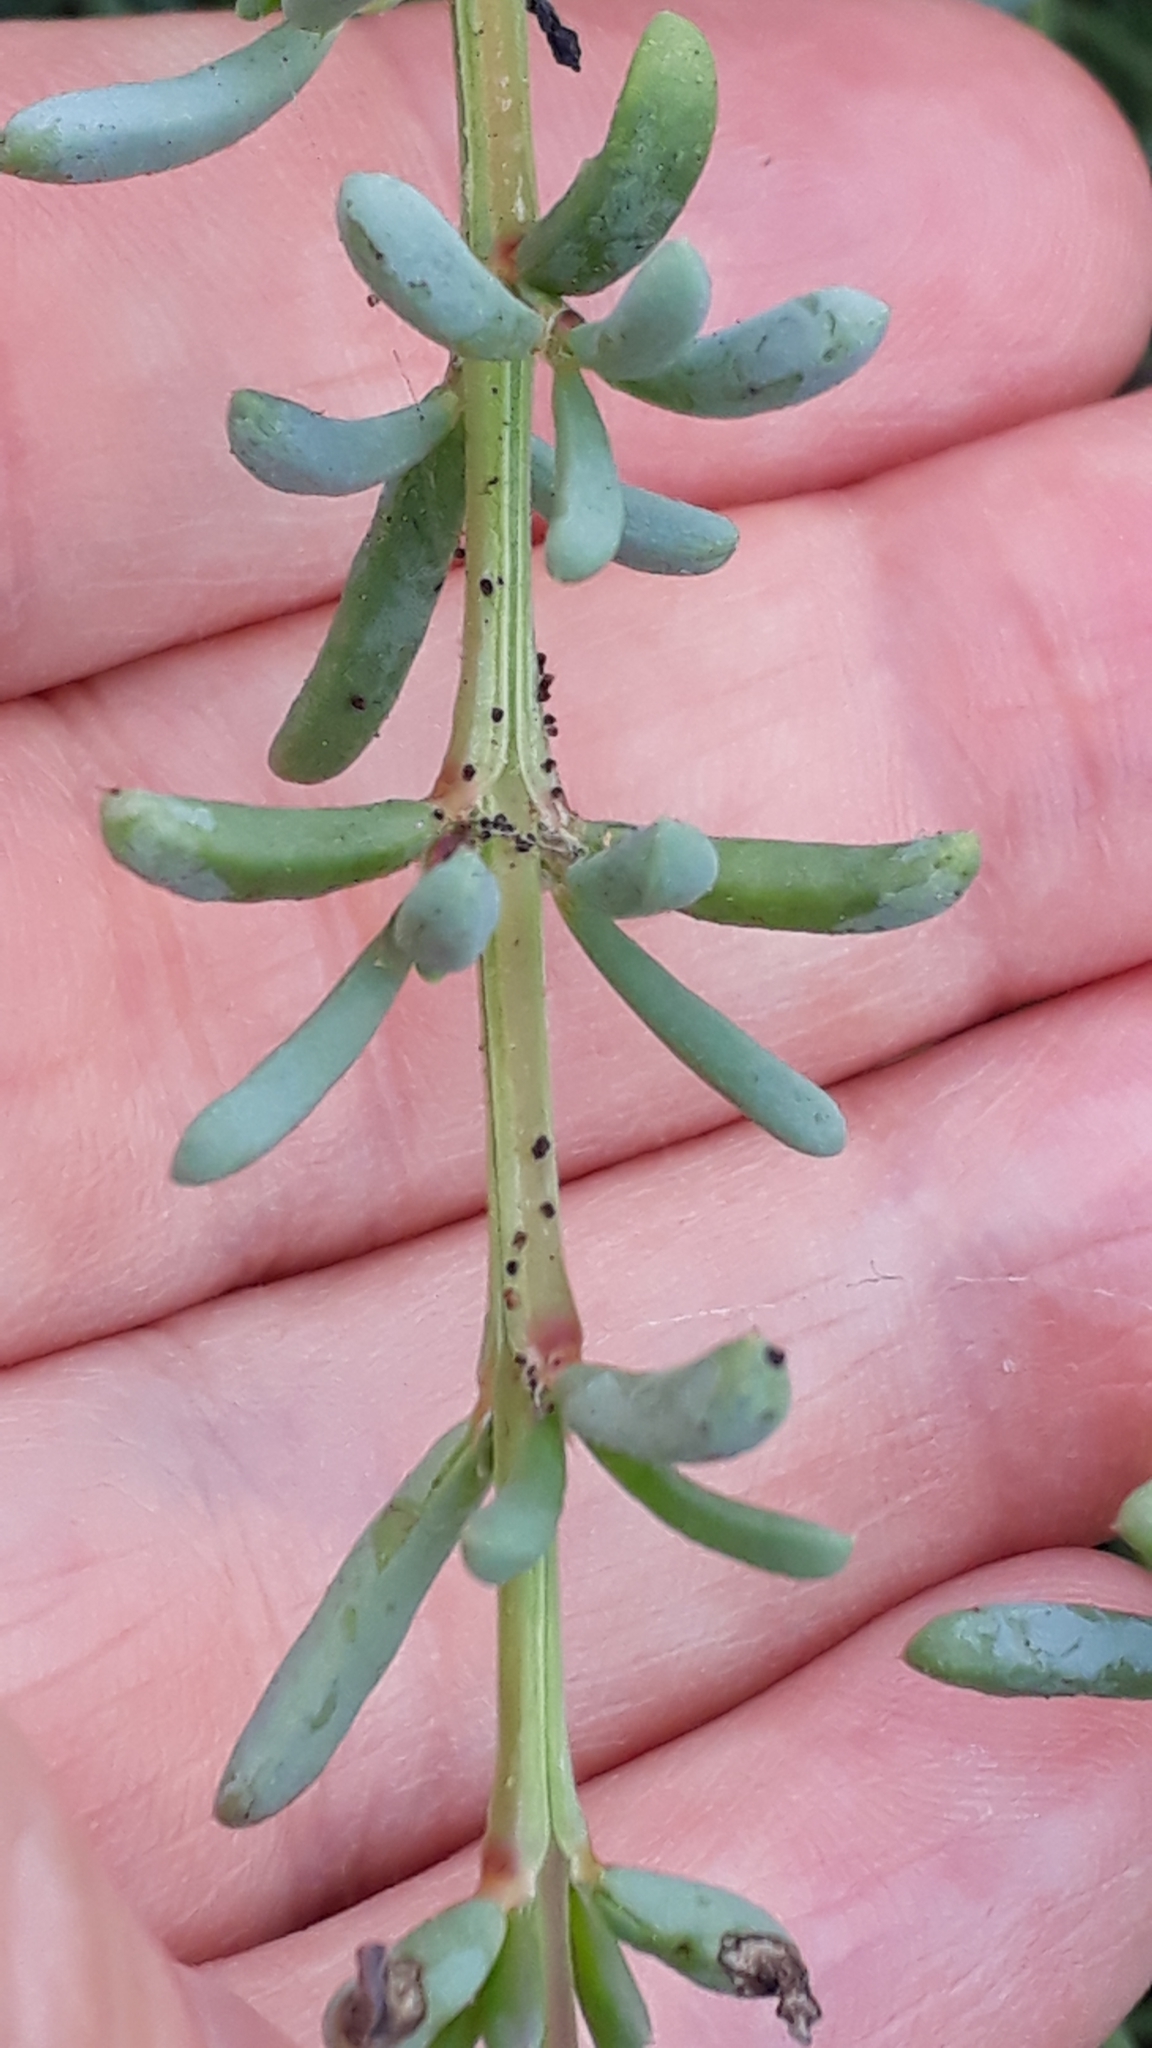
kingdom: Plantae
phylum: Tracheophyta
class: Magnoliopsida
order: Caryophyllales
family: Amaranthaceae
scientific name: Amaranthaceae
